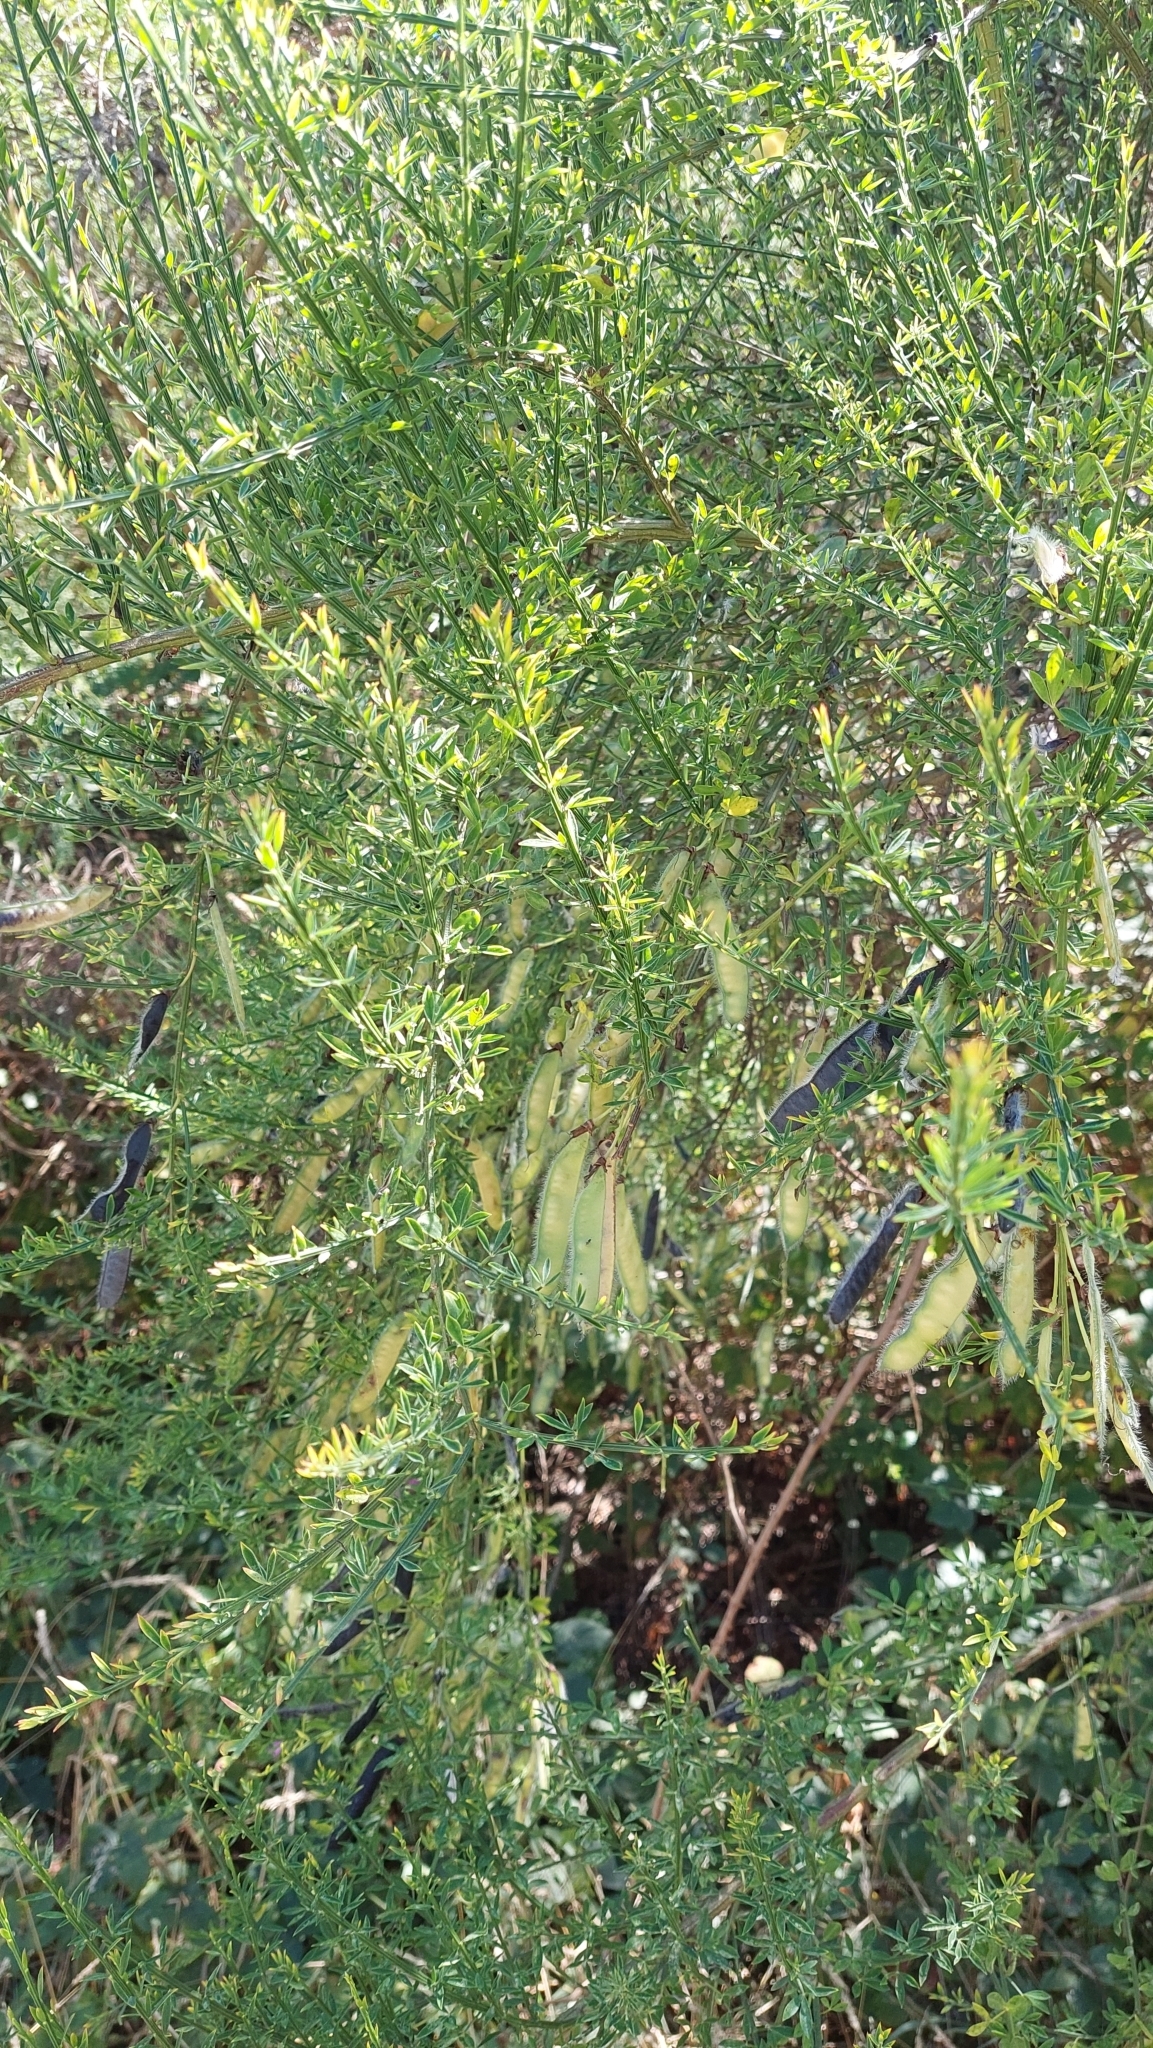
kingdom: Plantae
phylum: Tracheophyta
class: Magnoliopsida
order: Fabales
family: Fabaceae
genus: Cytisus
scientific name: Cytisus scoparius
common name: Scotch broom
